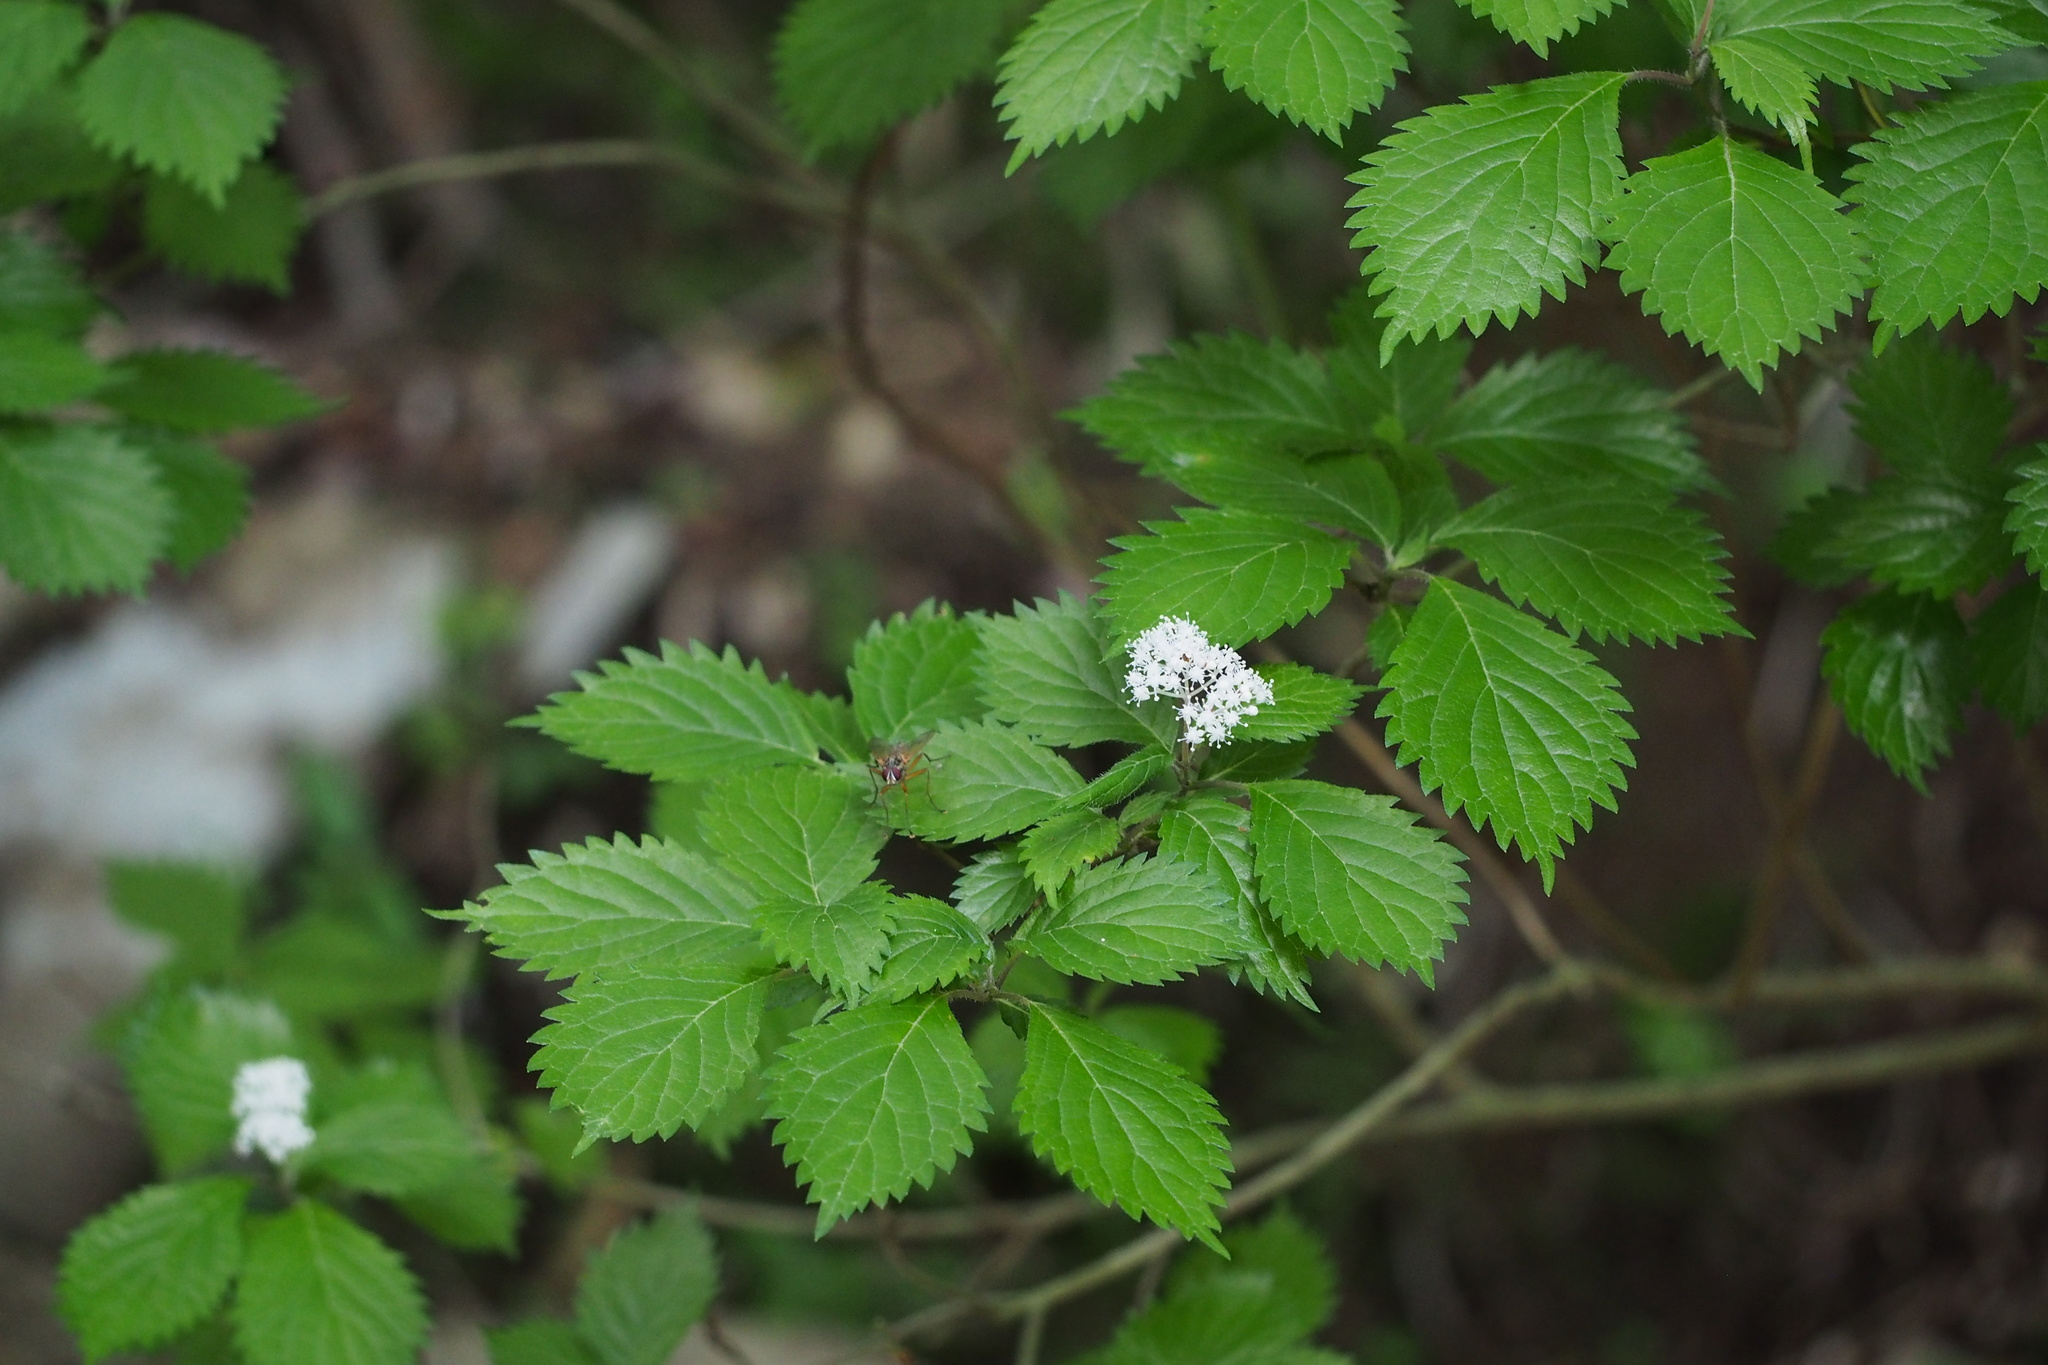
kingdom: Plantae
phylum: Tracheophyta
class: Magnoliopsida
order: Cornales
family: Hydrangeaceae
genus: Hydrangea
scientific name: Hydrangea hirta
